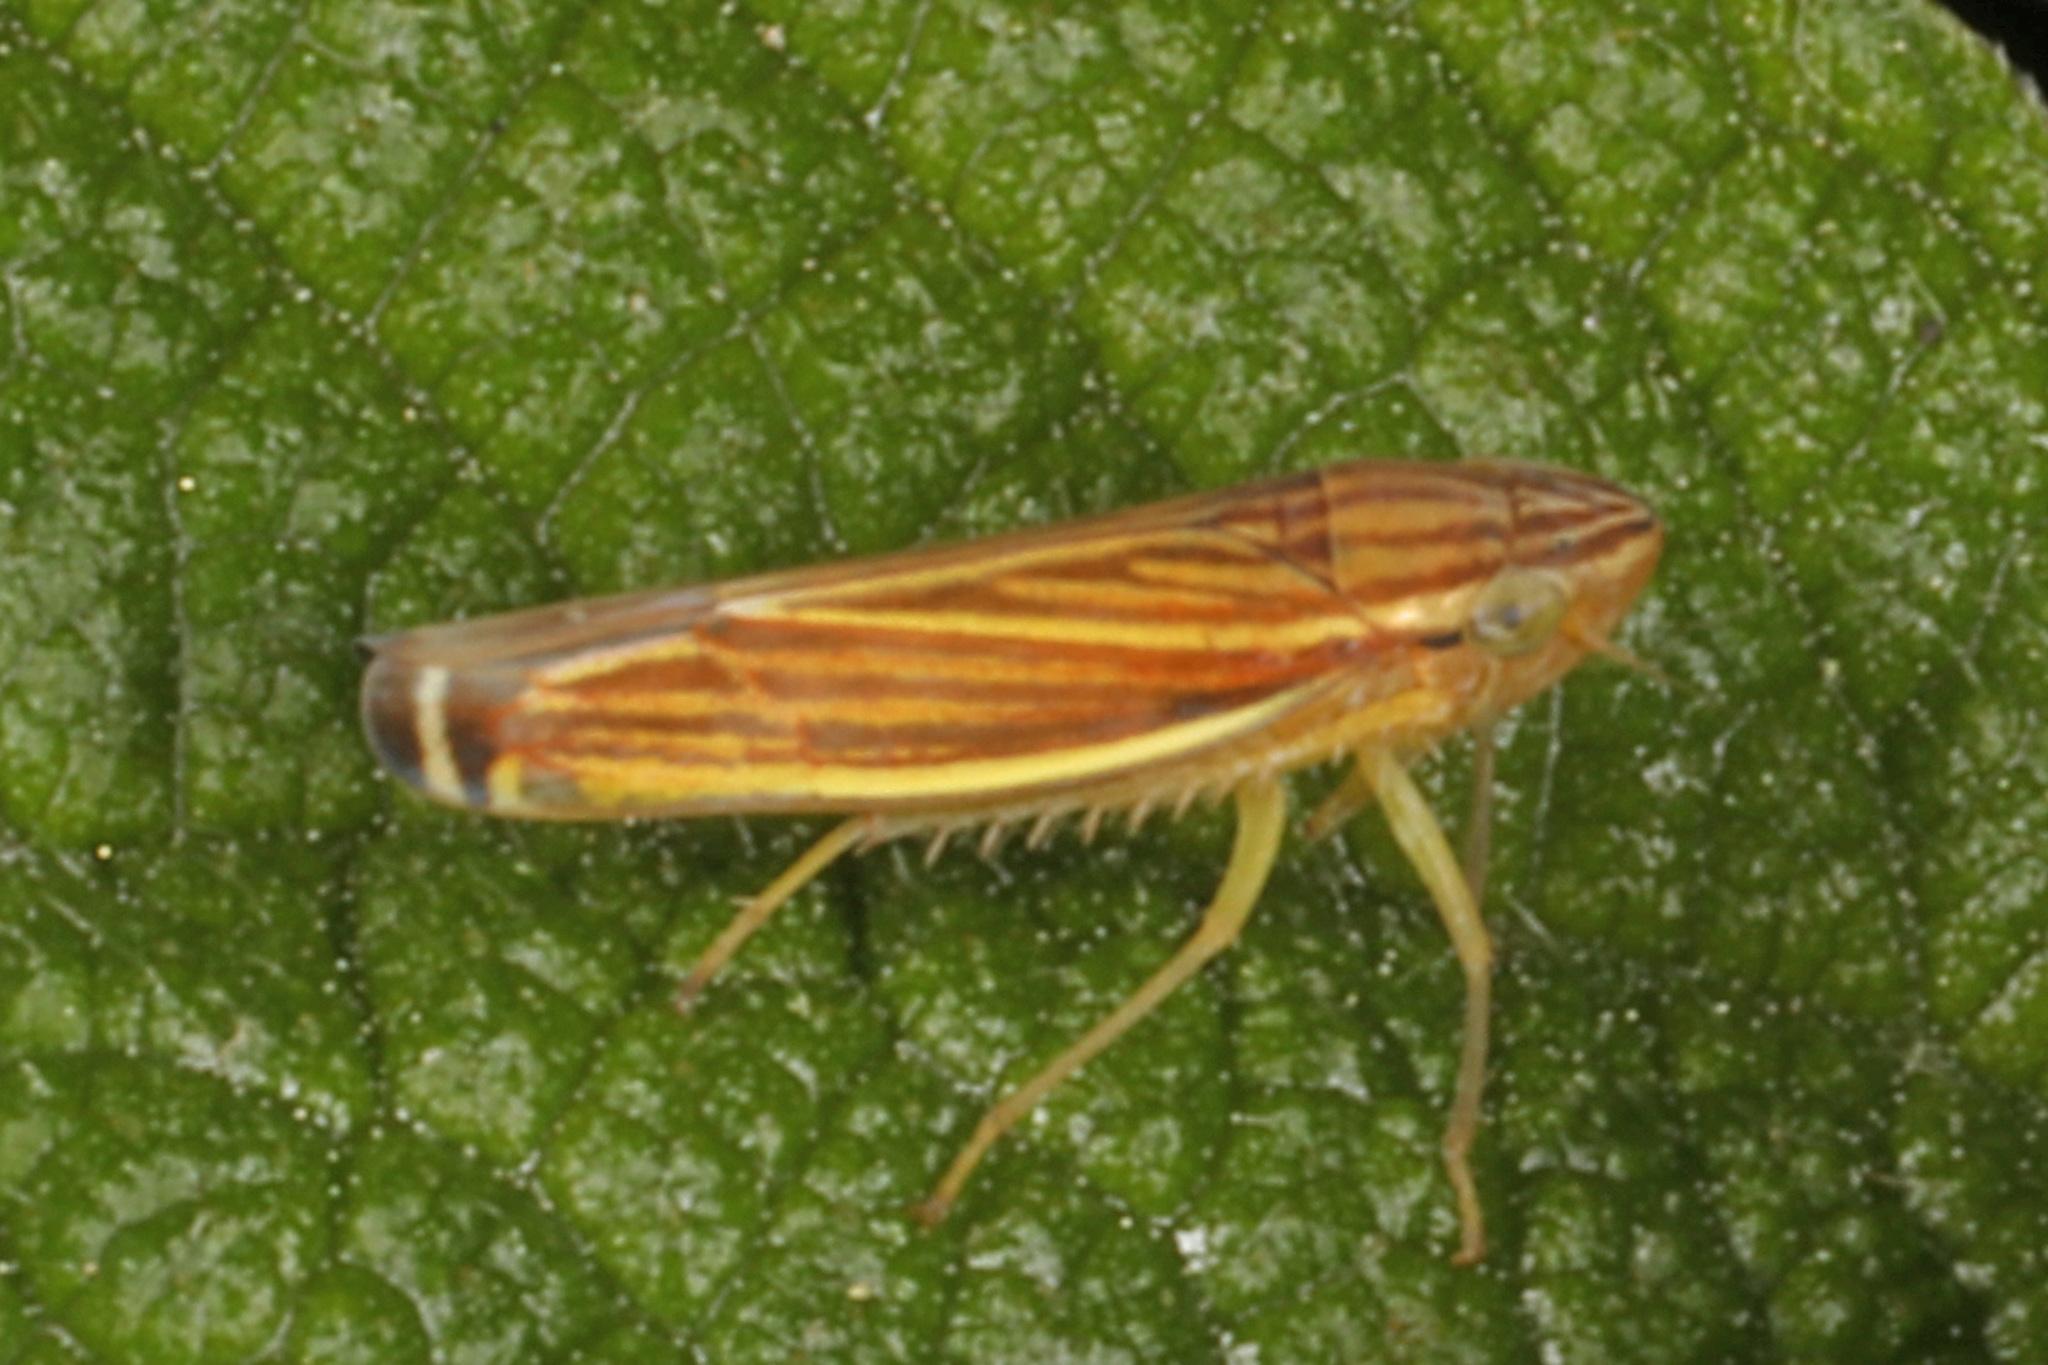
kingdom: Animalia
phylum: Arthropoda
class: Insecta
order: Hemiptera
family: Cicadellidae
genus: Sibovia
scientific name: Sibovia occatoria
